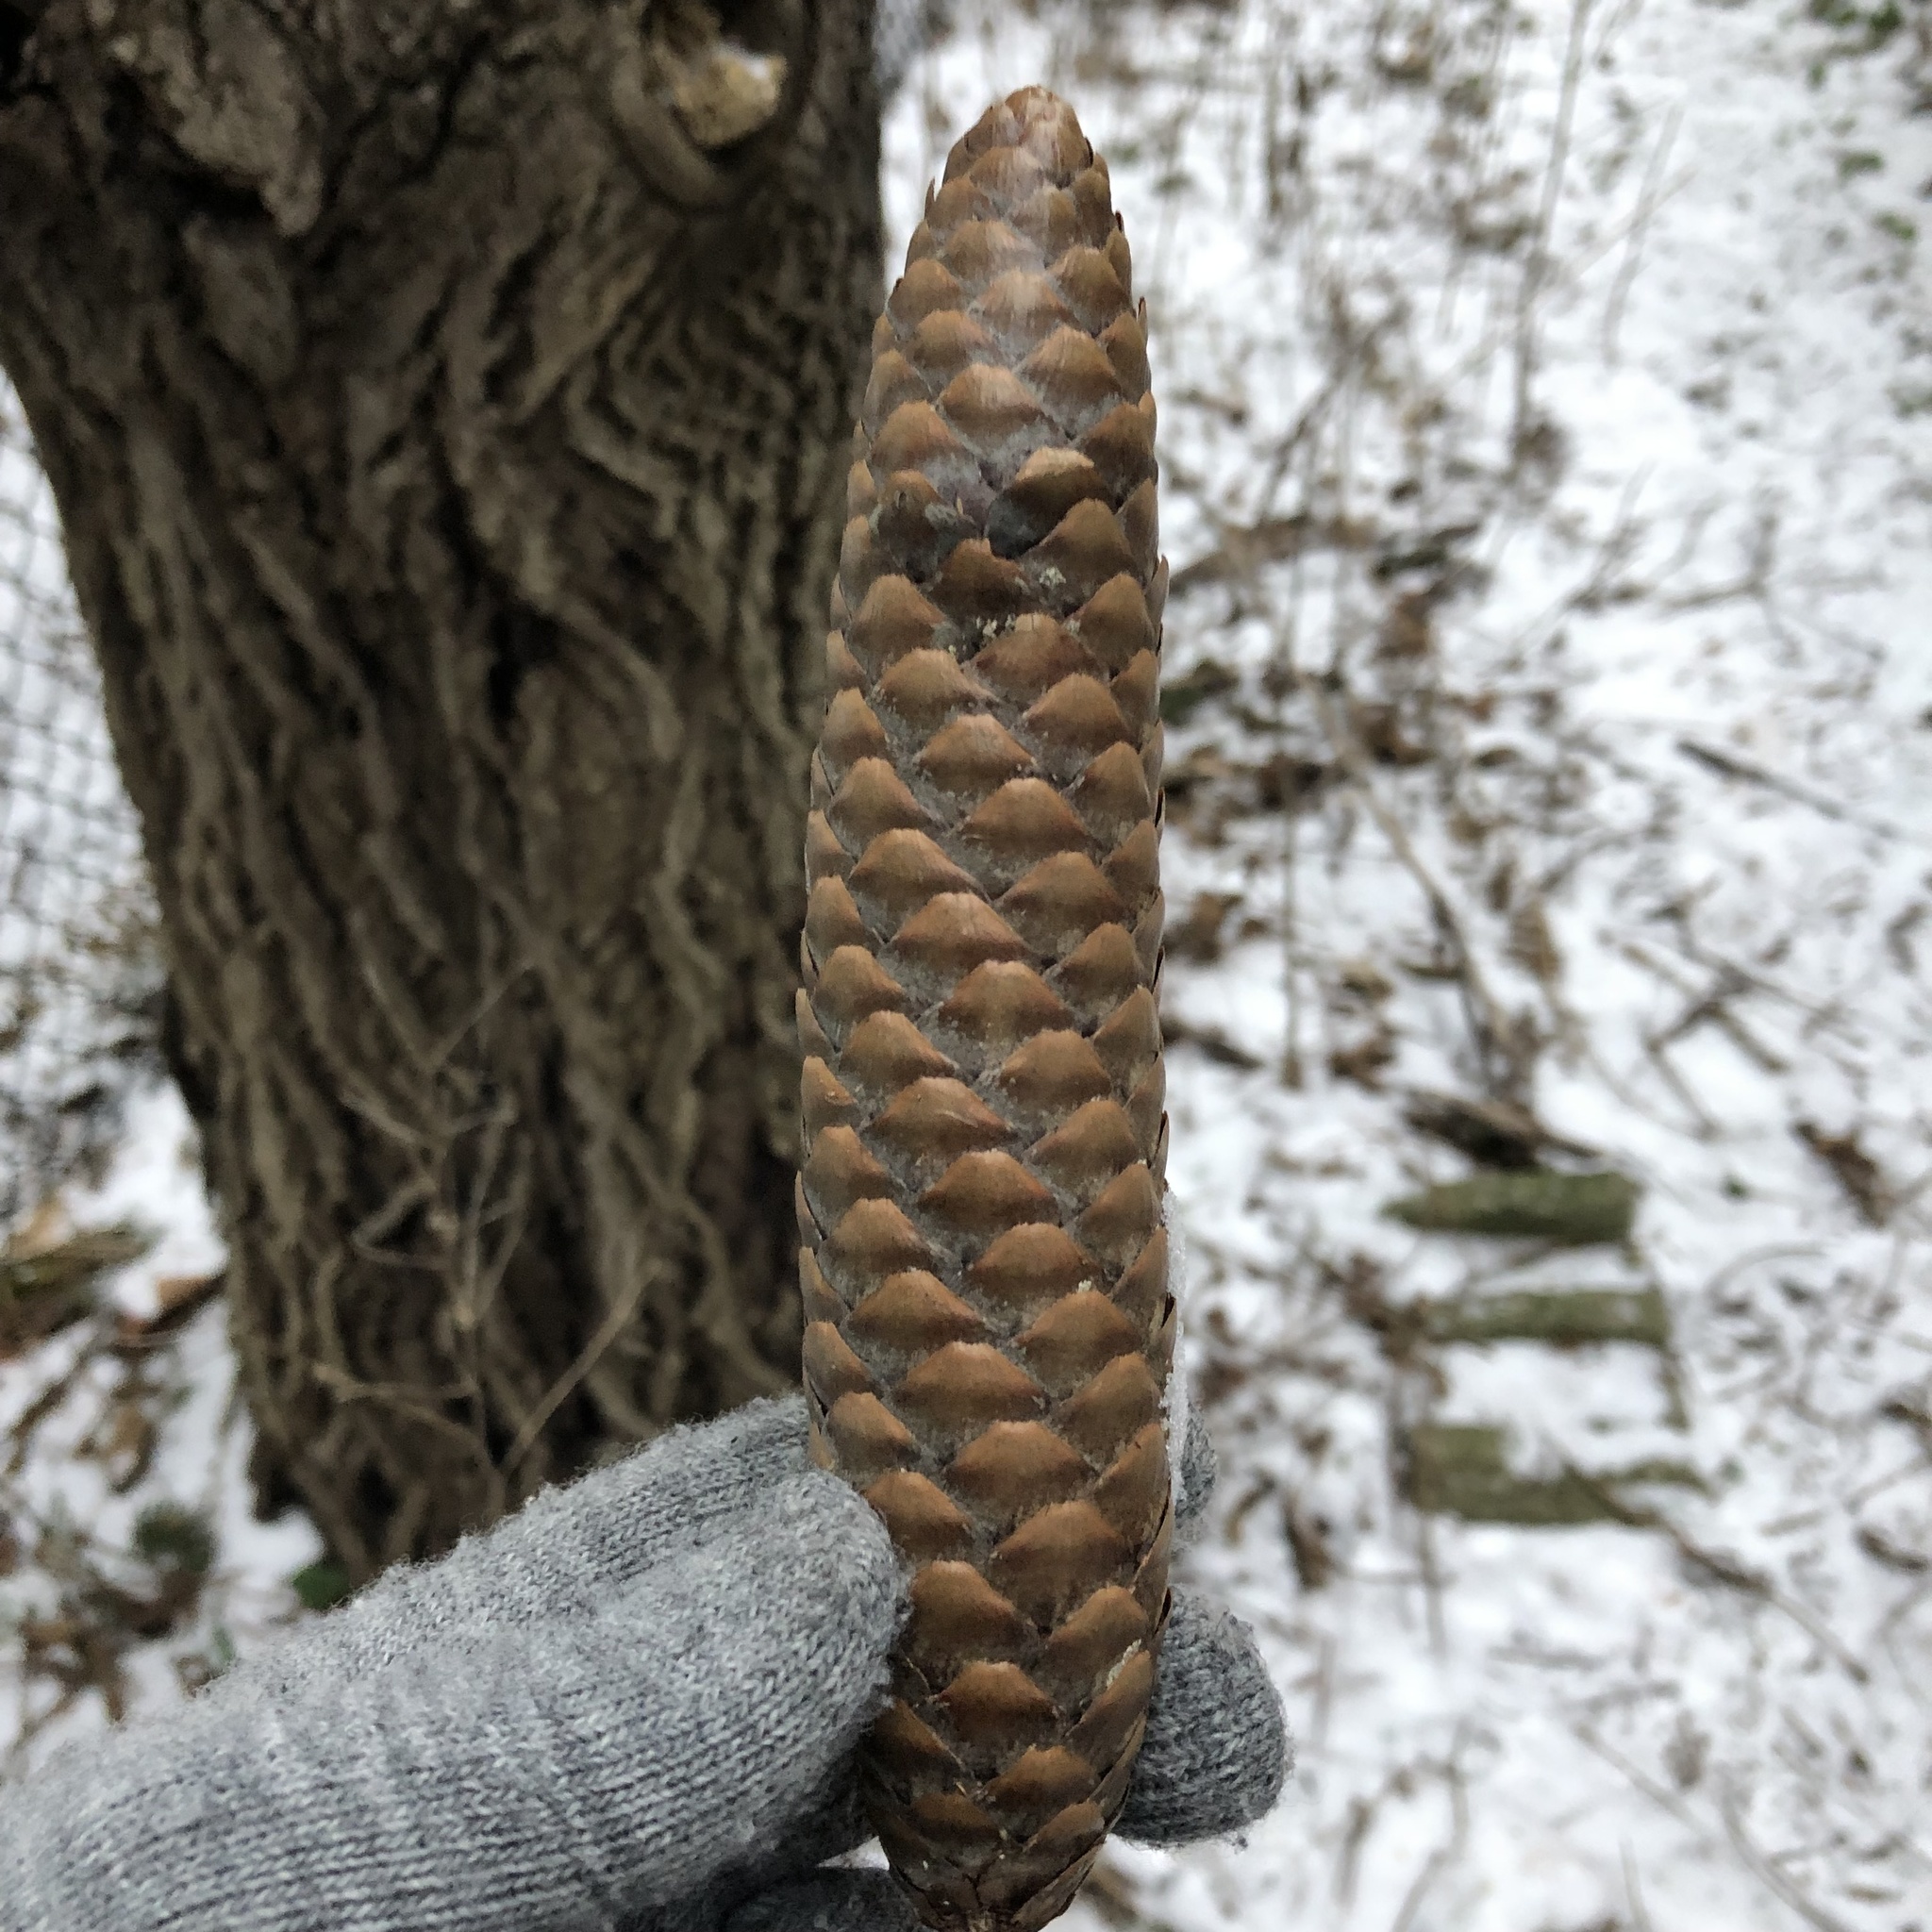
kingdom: Plantae
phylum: Tracheophyta
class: Pinopsida
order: Pinales
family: Pinaceae
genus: Picea
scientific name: Picea abies
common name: Norway spruce
